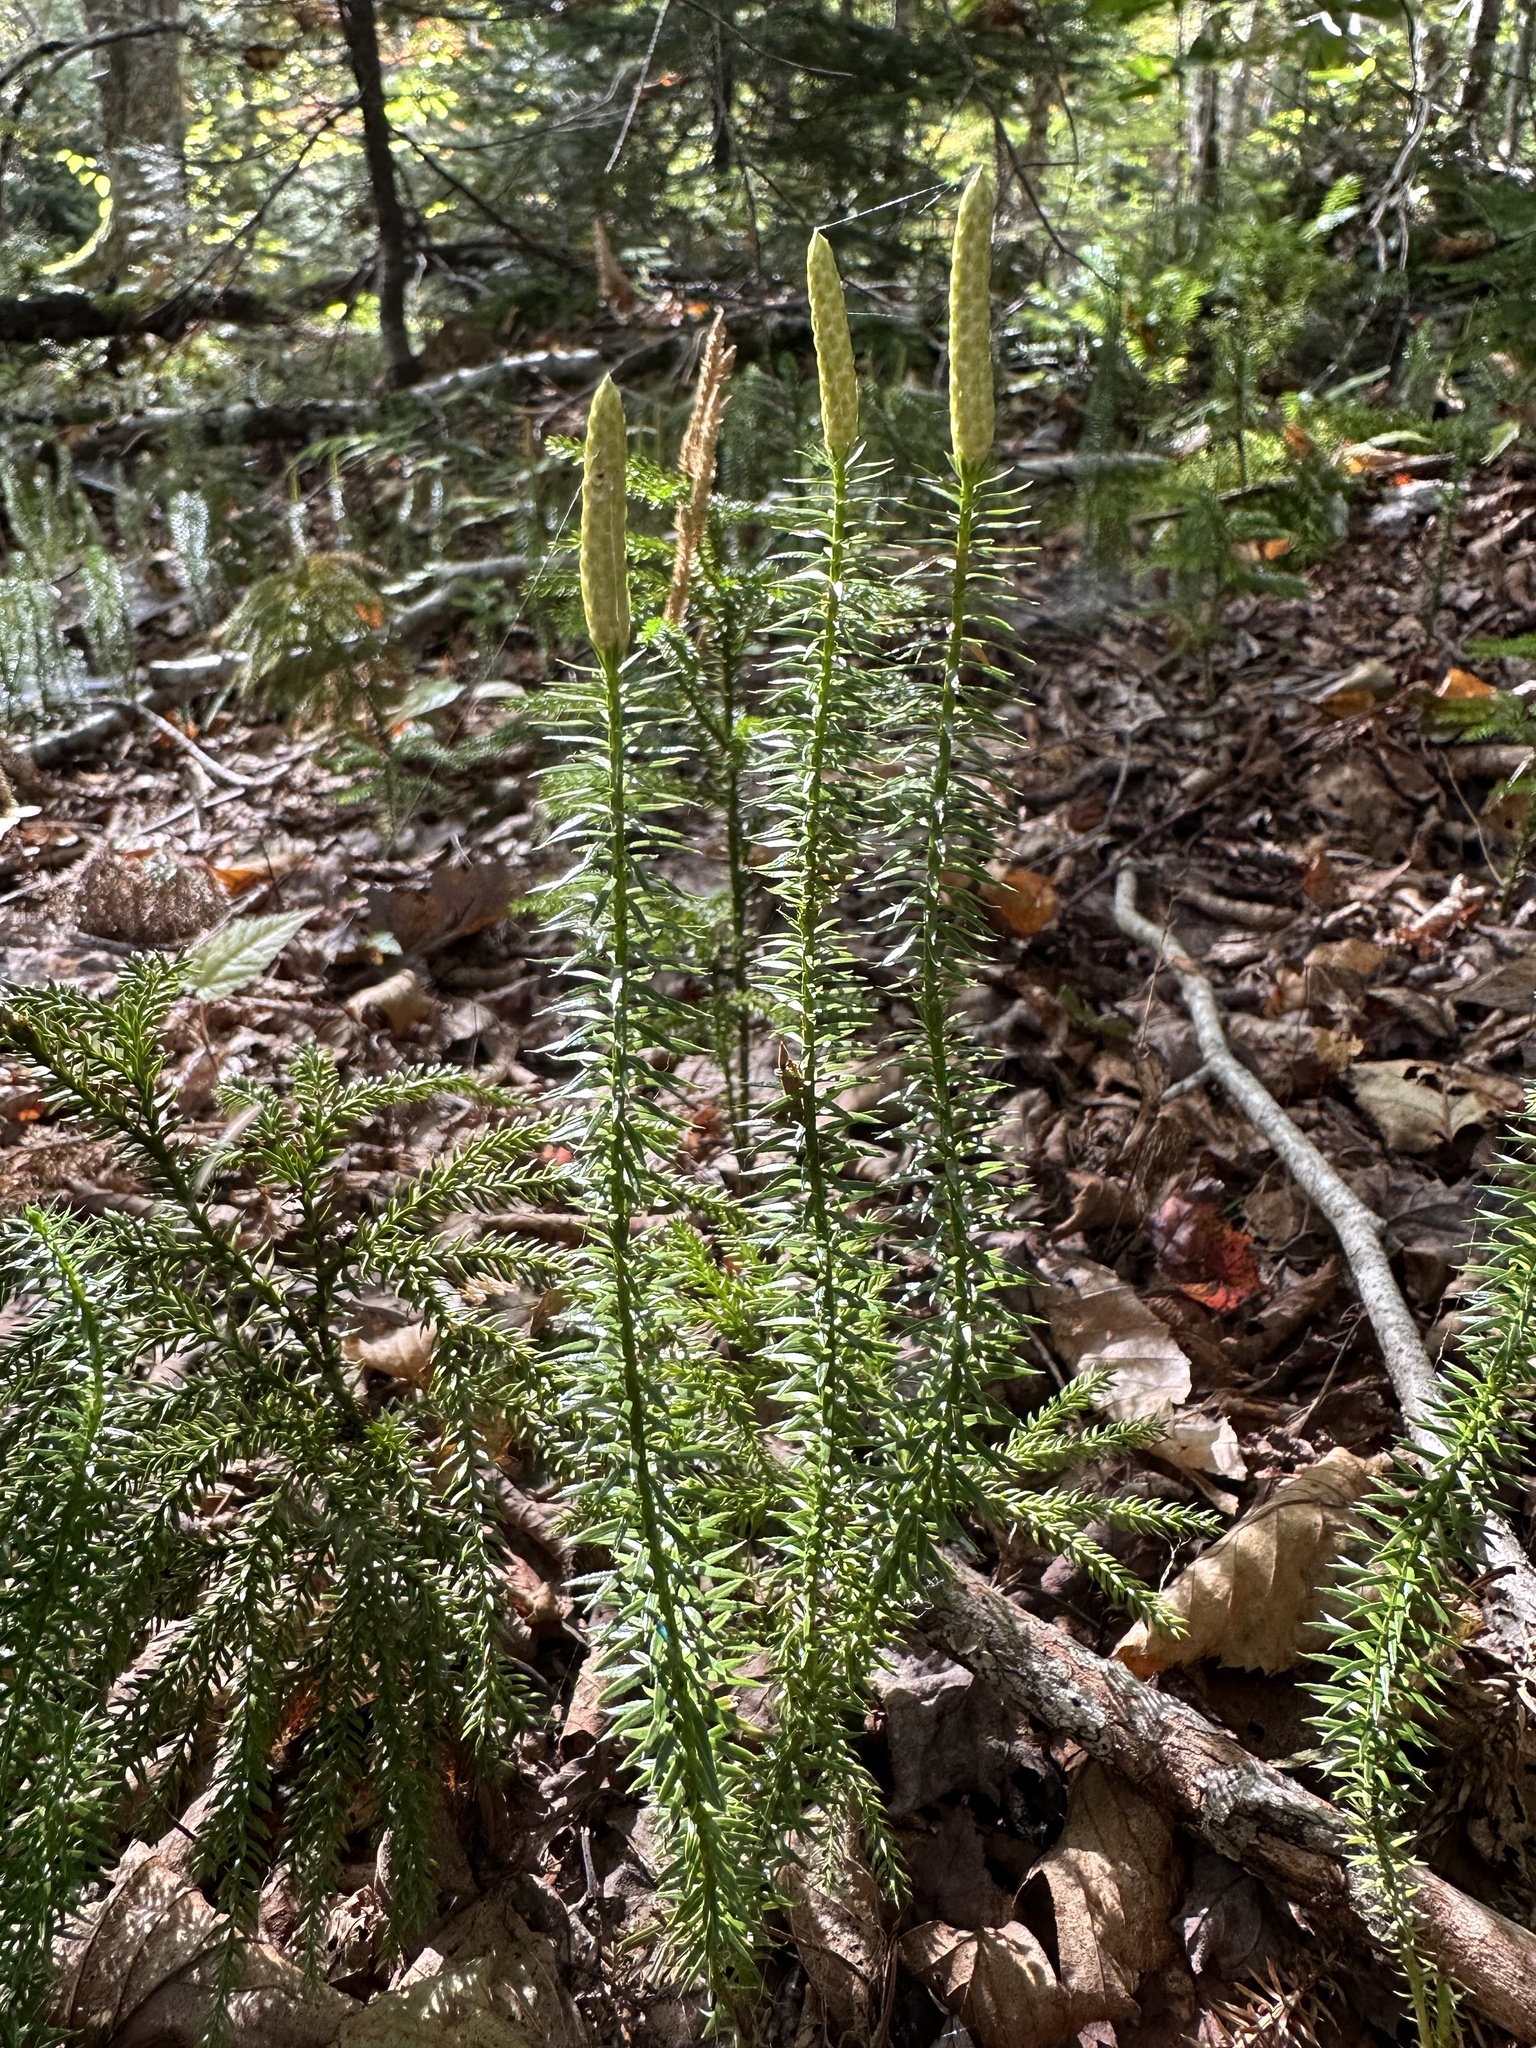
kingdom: Plantae
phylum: Tracheophyta
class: Lycopodiopsida
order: Lycopodiales
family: Lycopodiaceae
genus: Spinulum
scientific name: Spinulum annotinum
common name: Interrupted club-moss
